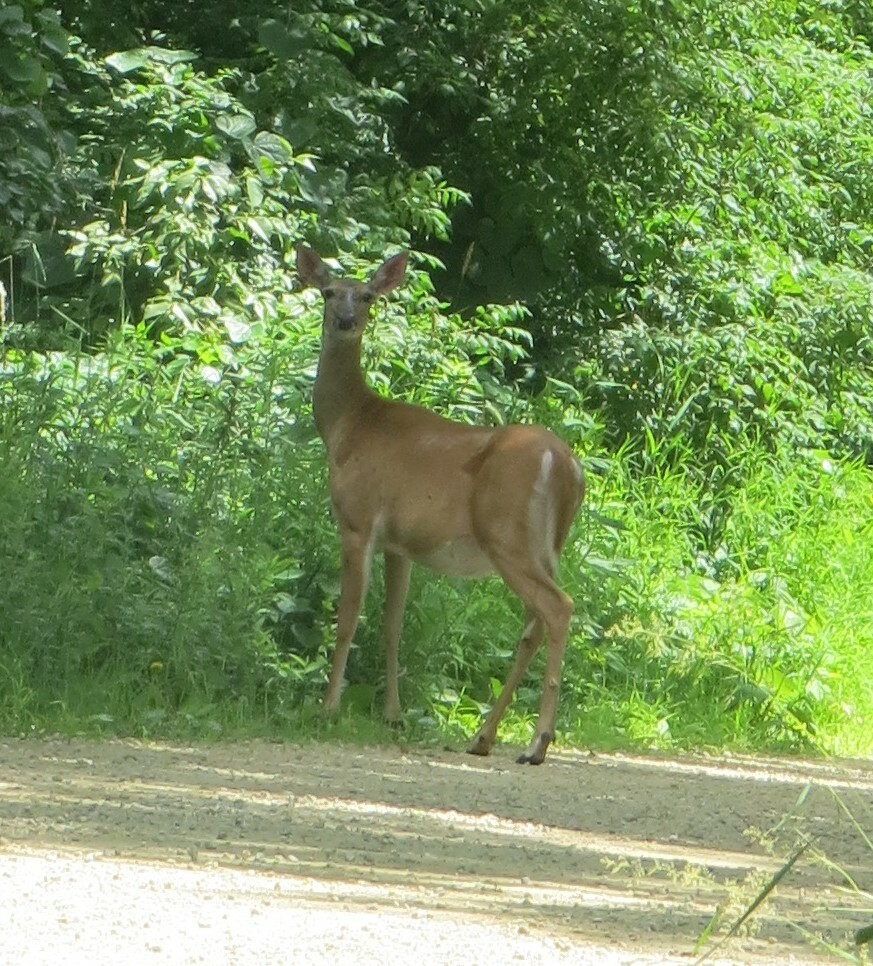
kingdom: Animalia
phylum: Chordata
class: Mammalia
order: Artiodactyla
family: Cervidae
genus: Odocoileus
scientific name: Odocoileus virginianus
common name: White-tailed deer
